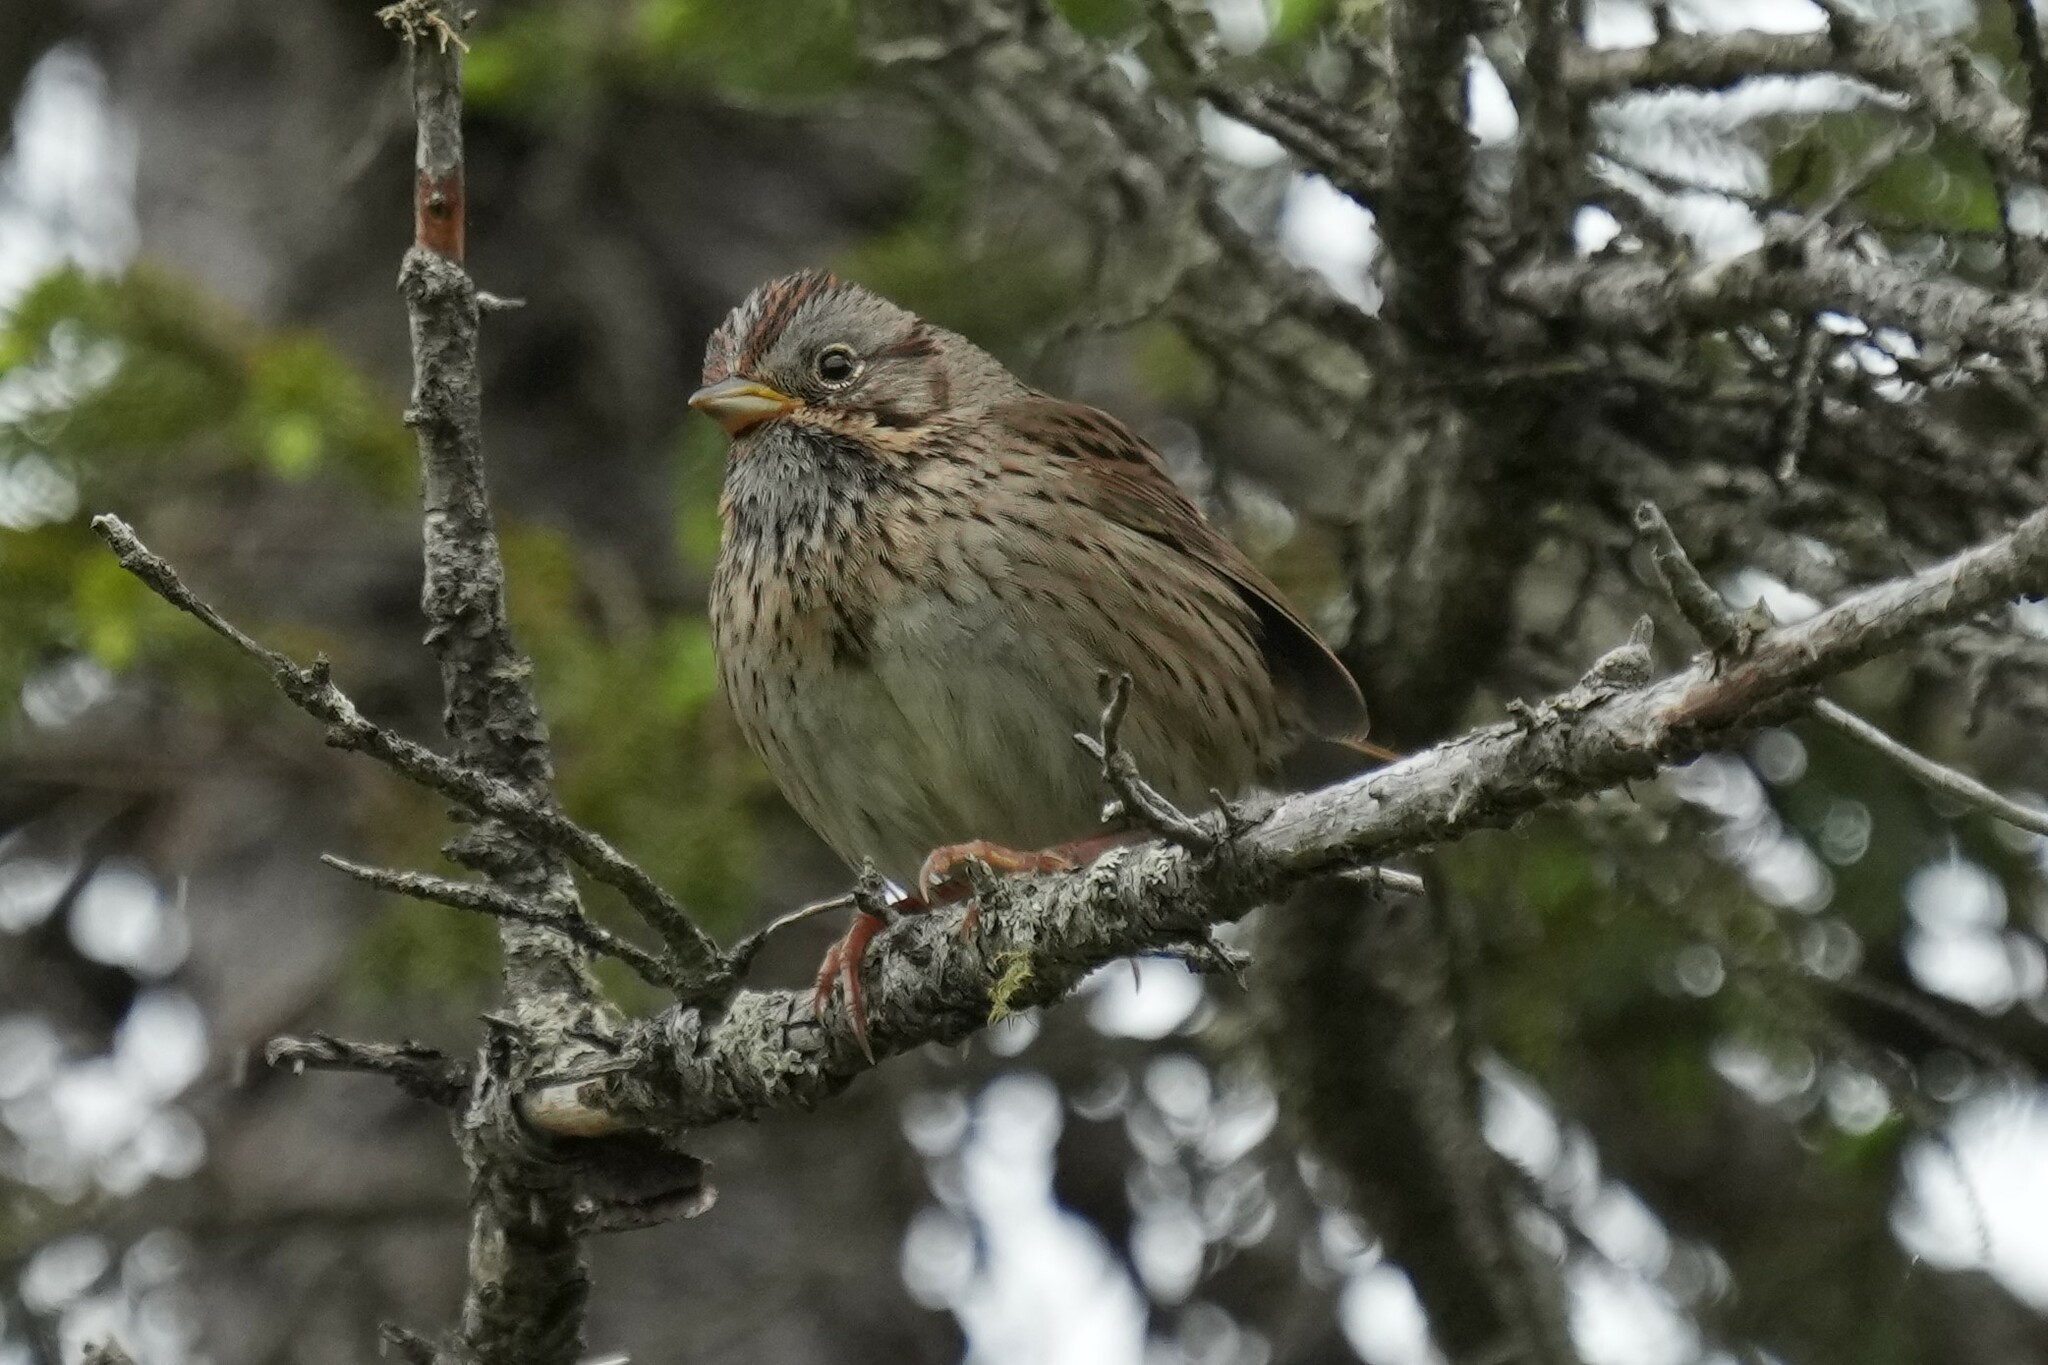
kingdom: Animalia
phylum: Chordata
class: Aves
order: Passeriformes
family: Passerellidae
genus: Melospiza
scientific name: Melospiza lincolnii
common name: Lincoln's sparrow
